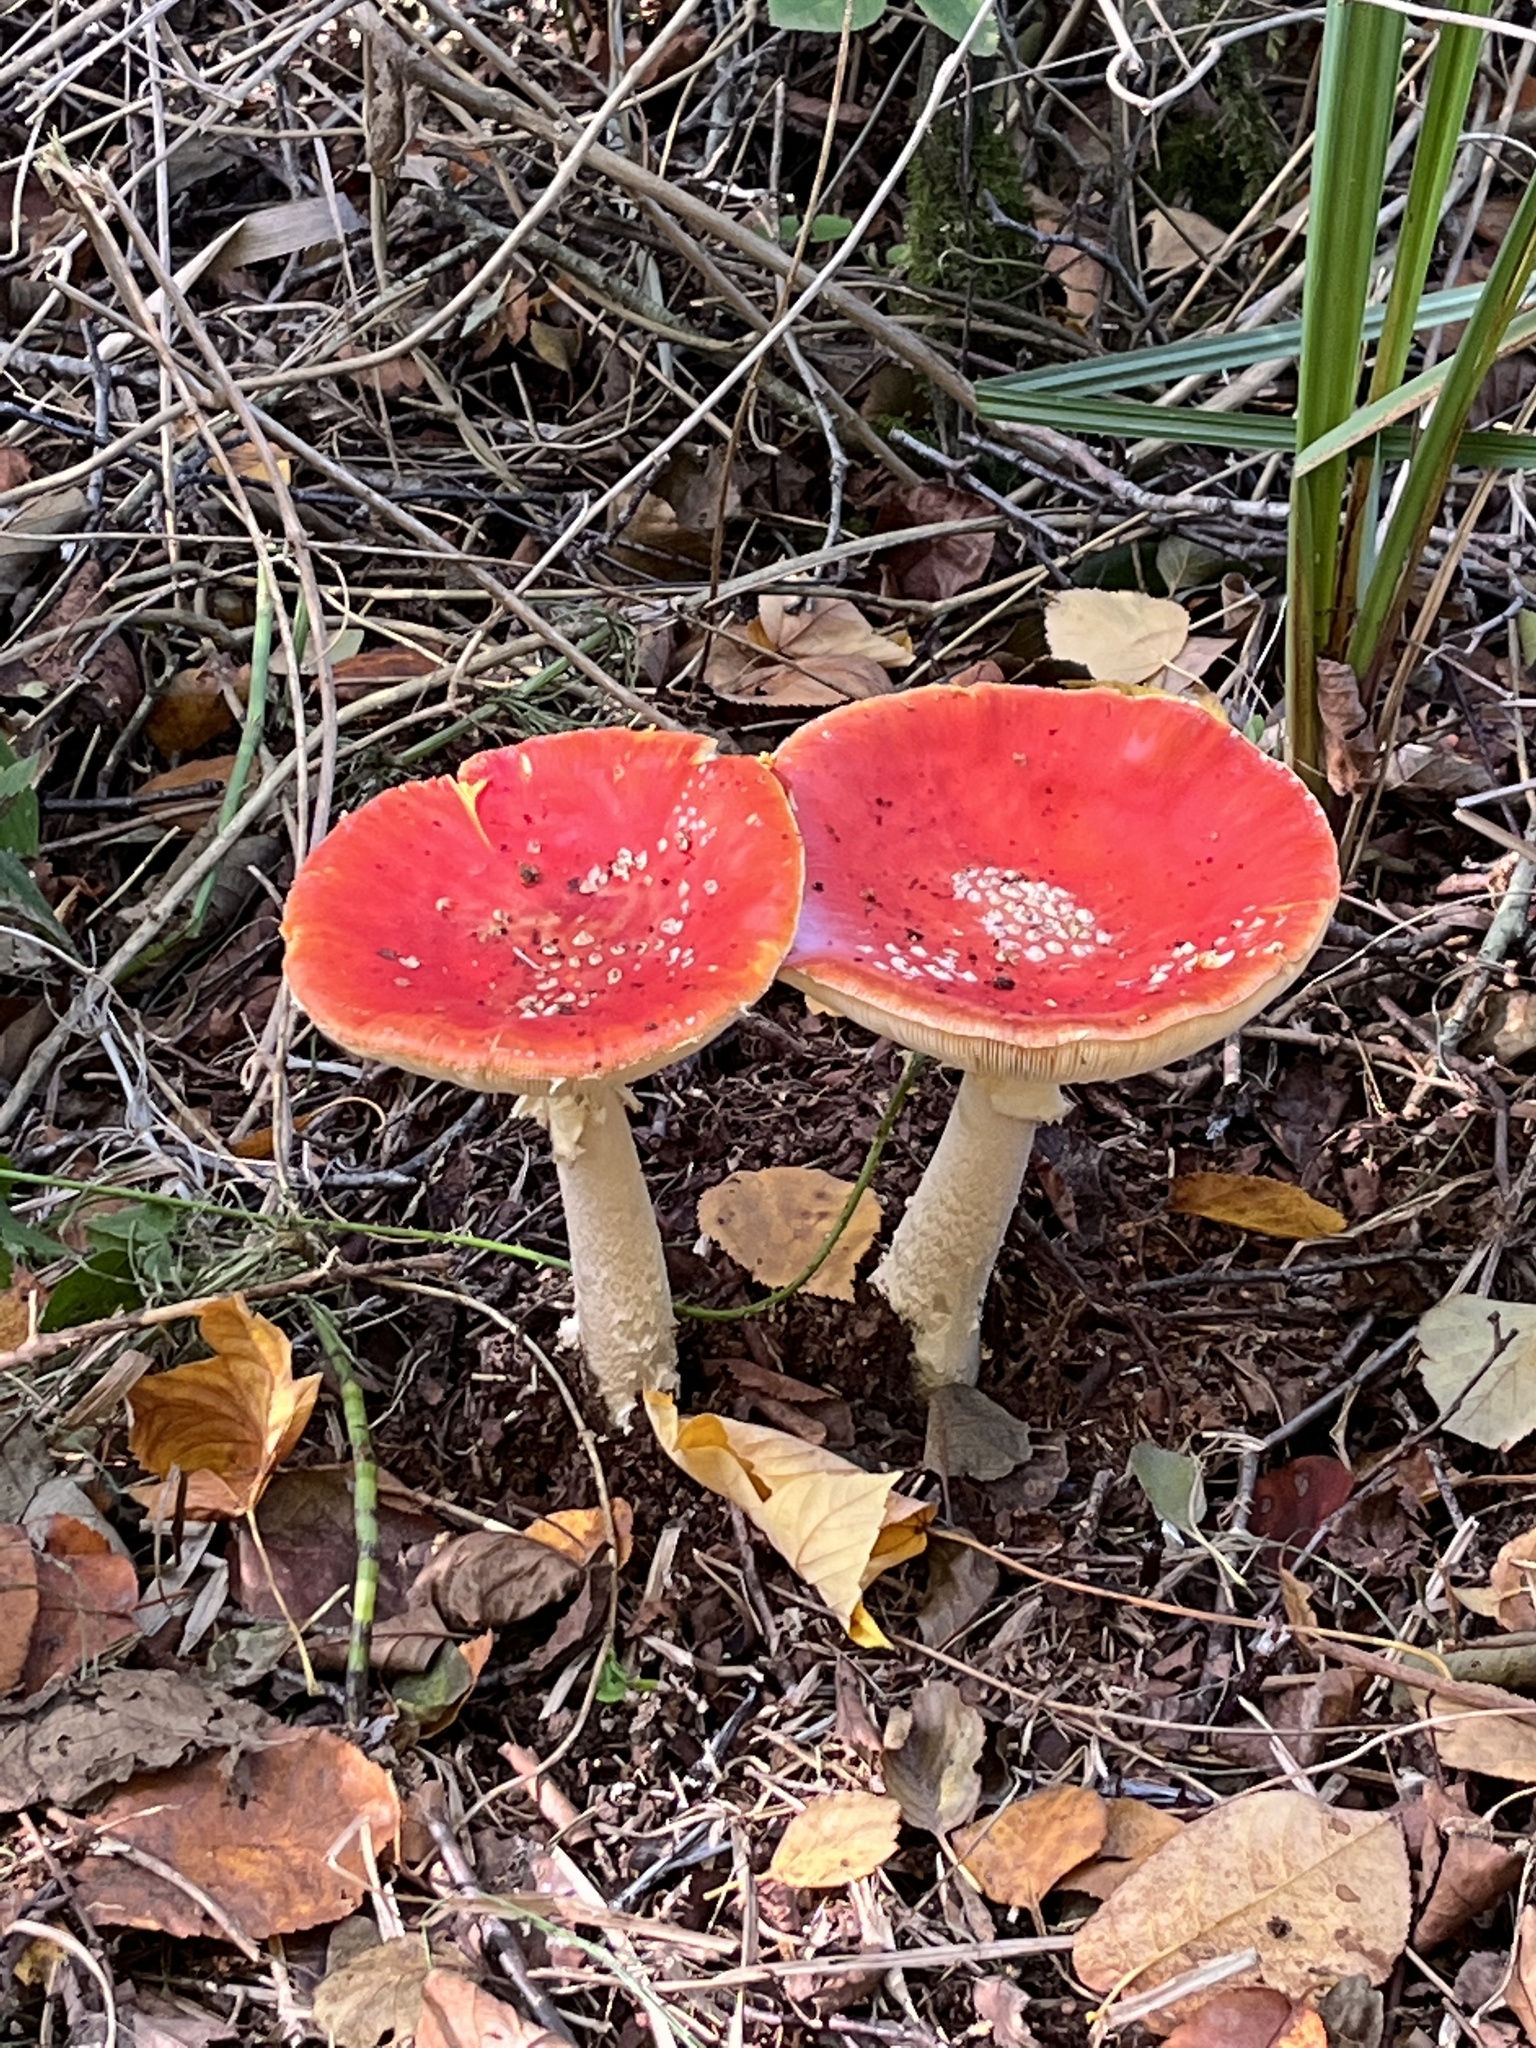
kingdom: Fungi
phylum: Basidiomycota
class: Agaricomycetes
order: Agaricales
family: Amanitaceae
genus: Amanita
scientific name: Amanita muscaria
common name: Fly agaric
